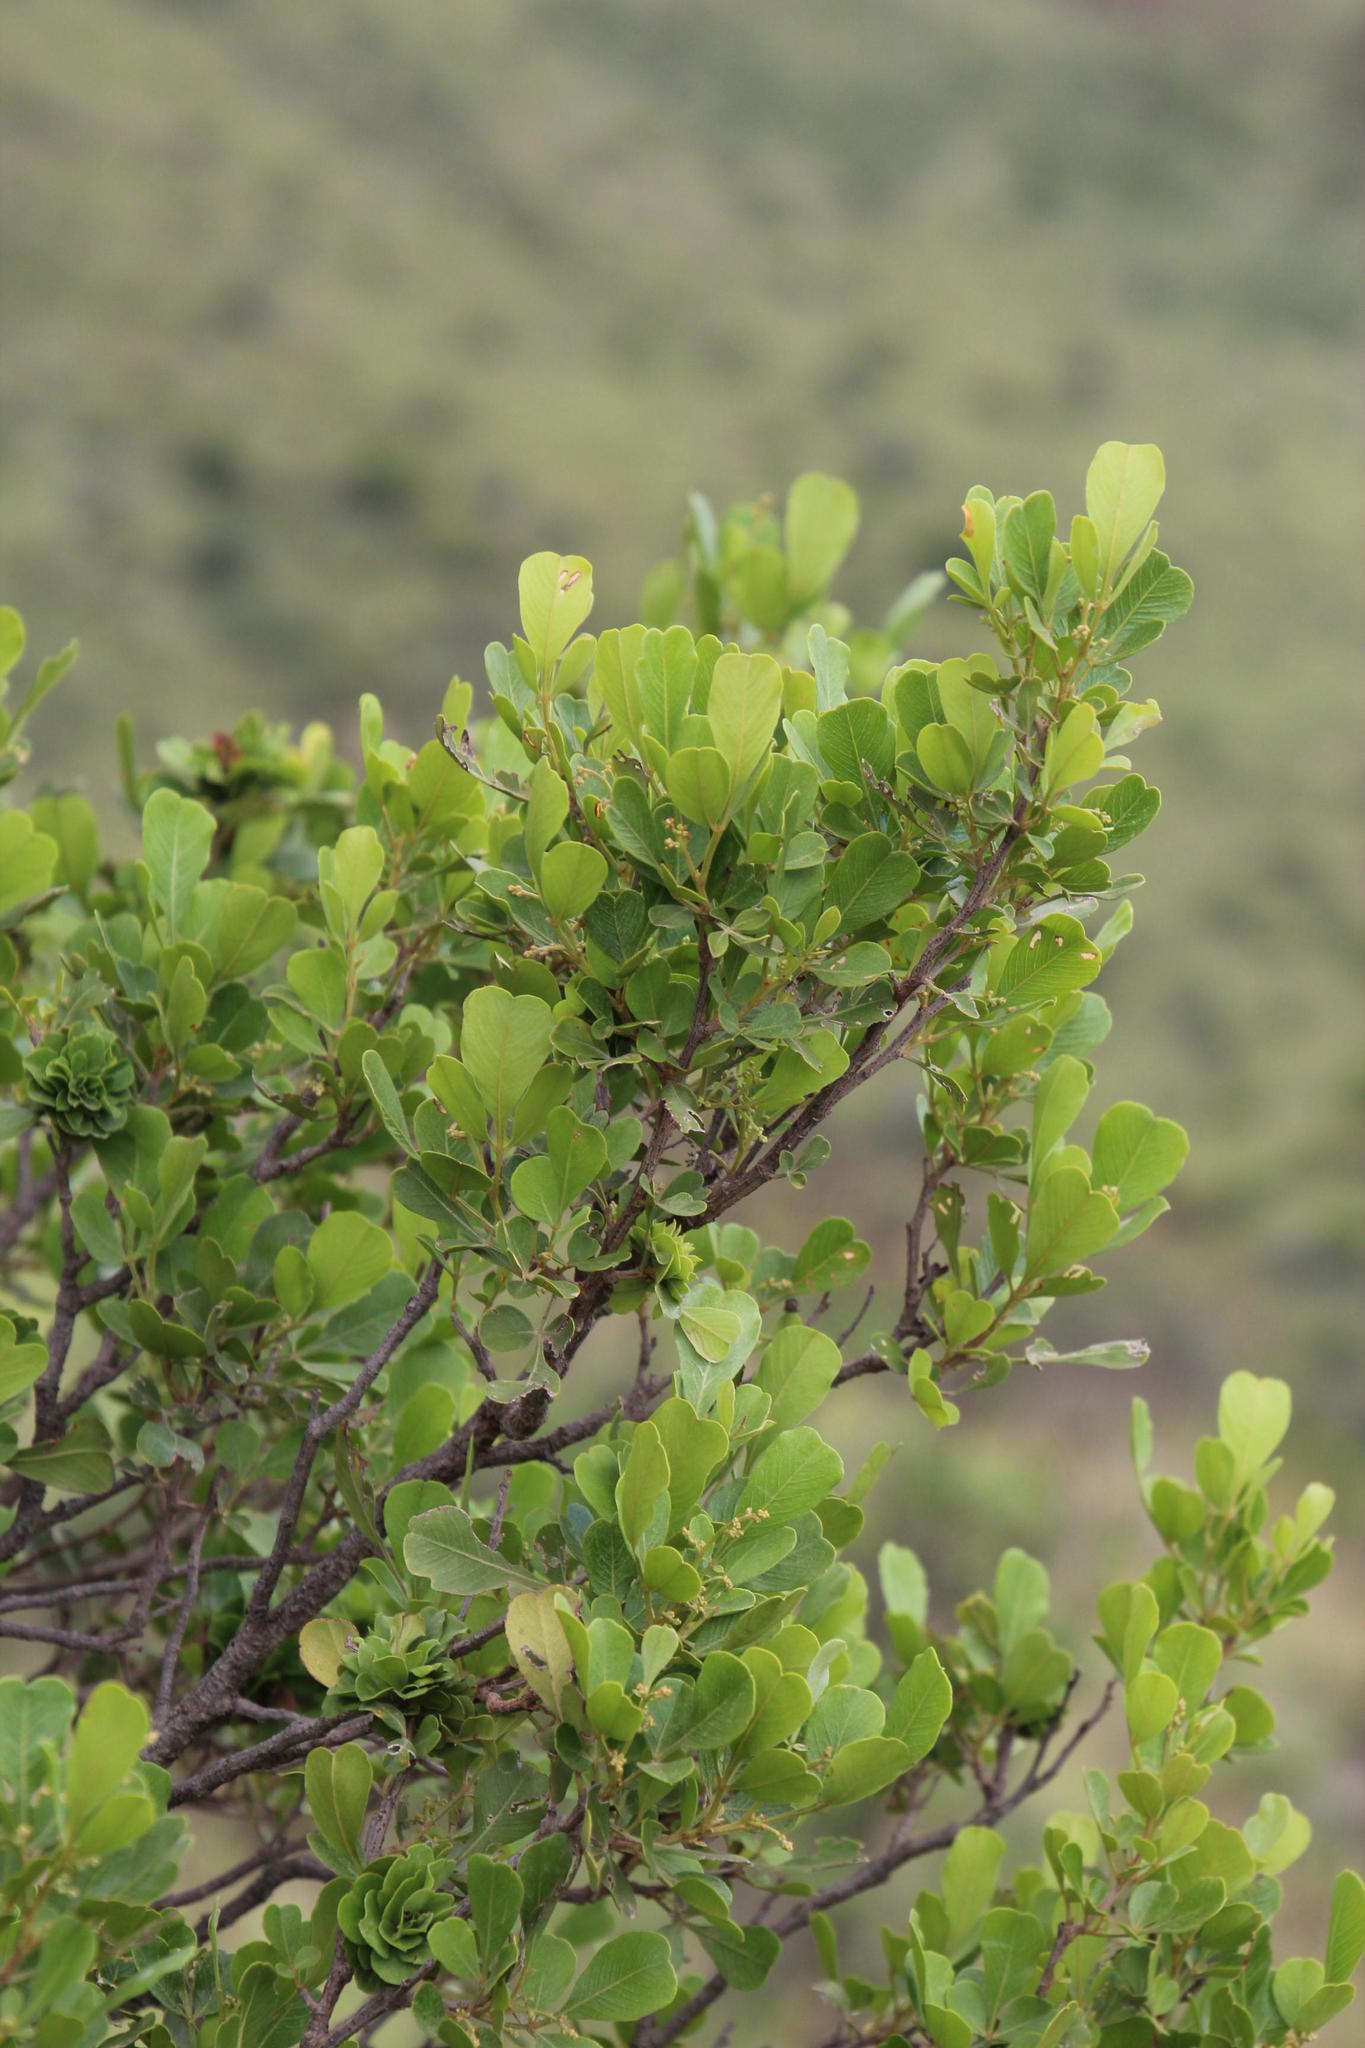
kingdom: Plantae
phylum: Tracheophyta
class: Magnoliopsida
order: Sapindales
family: Anacardiaceae
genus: Searsia
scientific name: Searsia pallens
